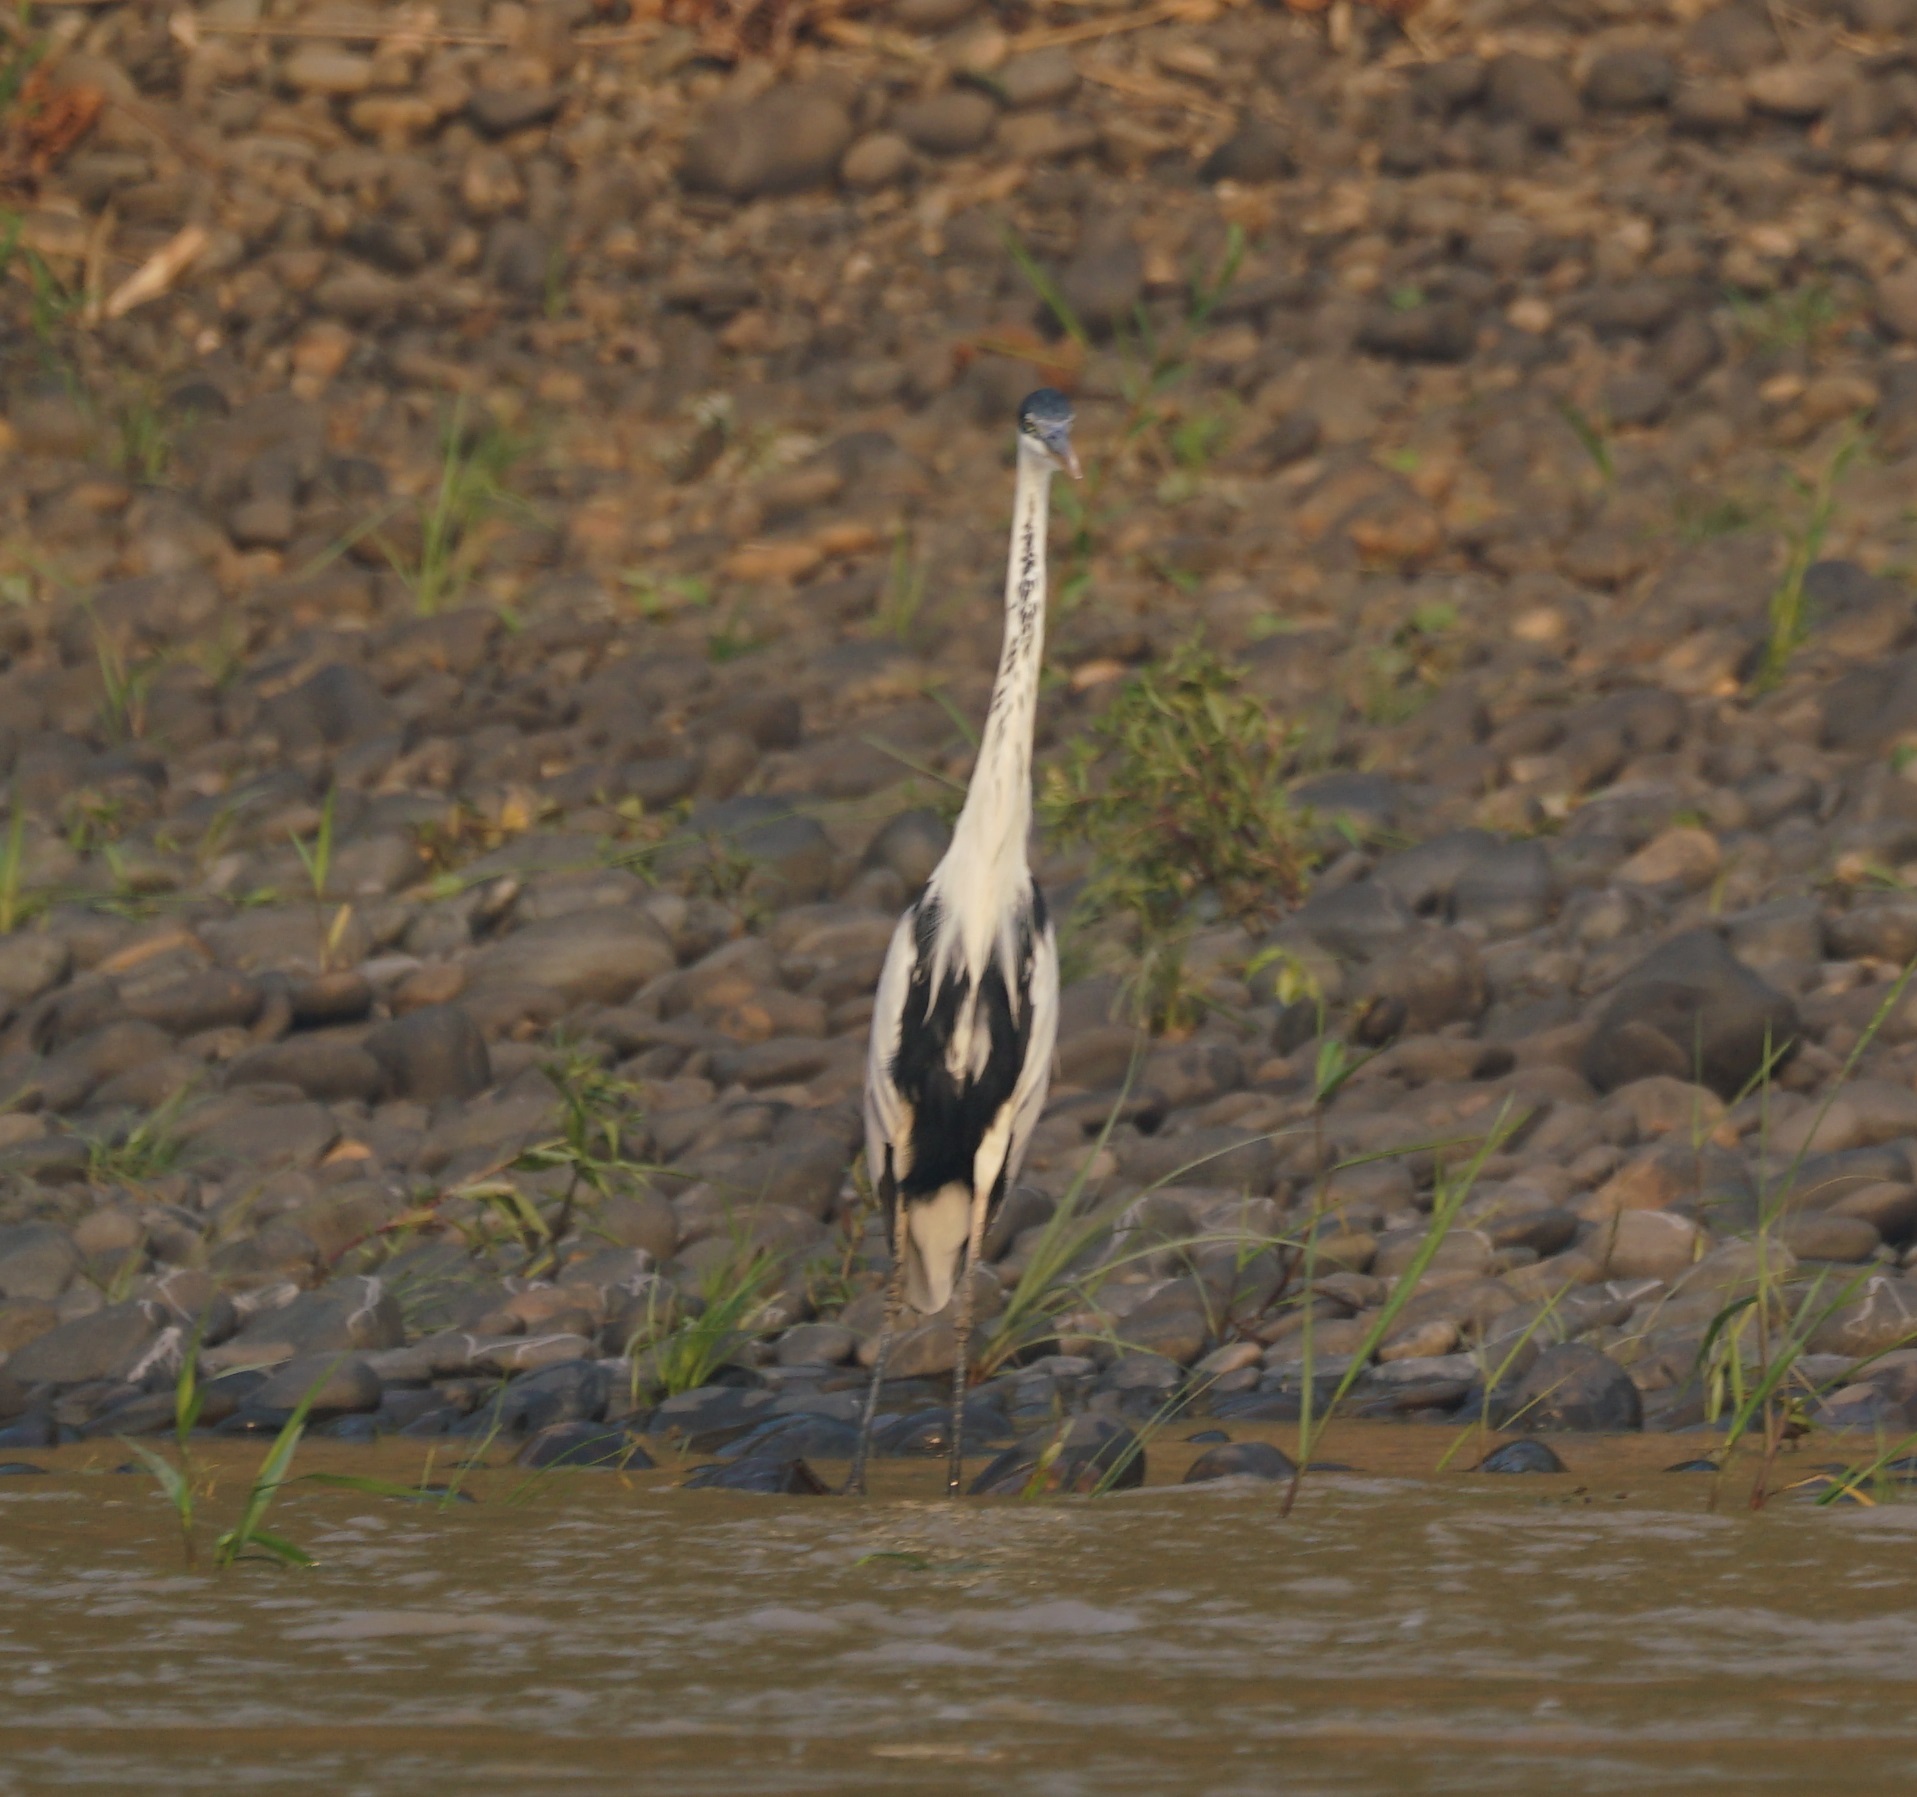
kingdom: Animalia
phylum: Chordata
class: Aves
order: Pelecaniformes
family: Ardeidae
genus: Ardea
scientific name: Ardea cocoi
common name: Cocoi heron
